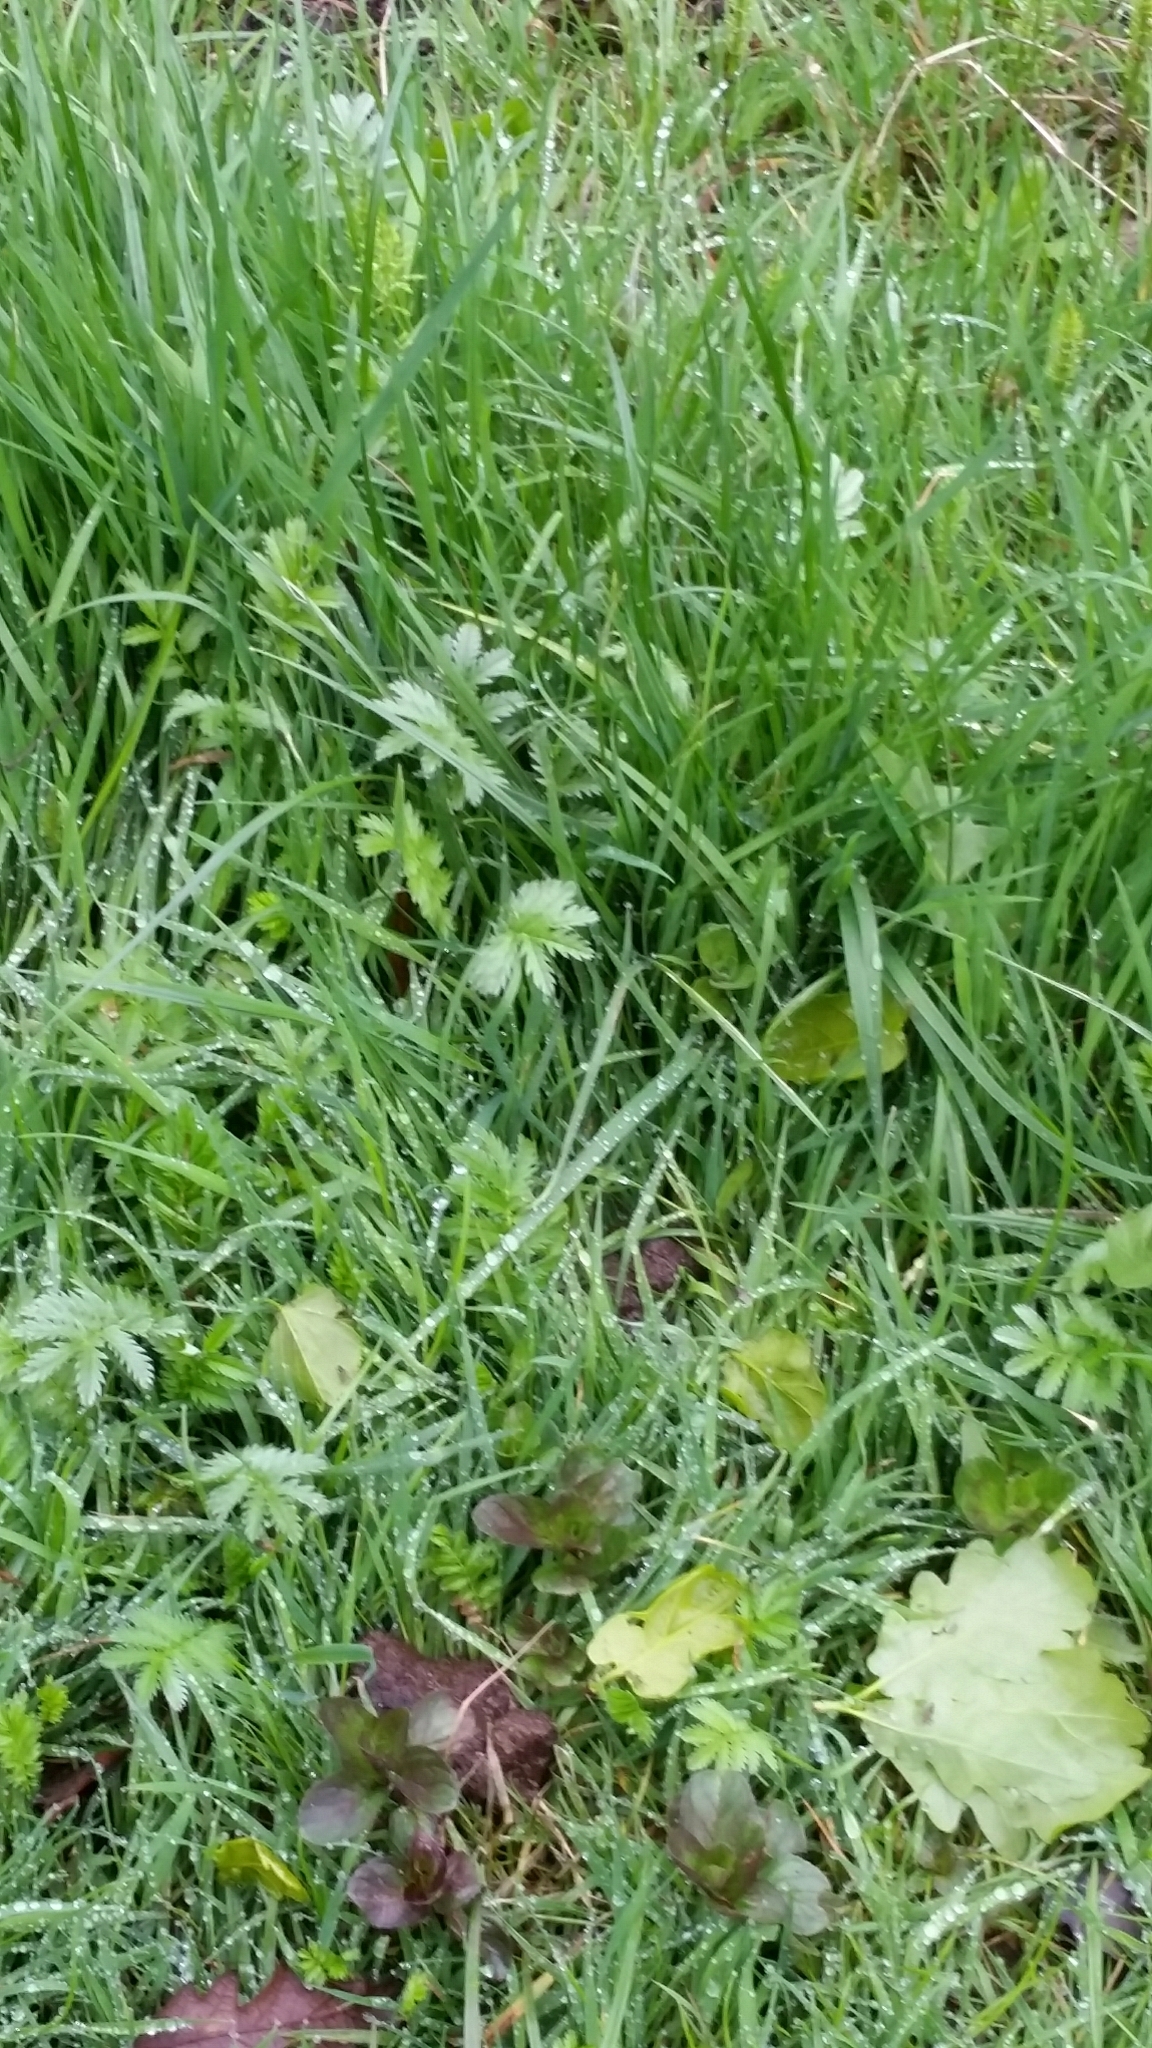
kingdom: Plantae
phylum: Tracheophyta
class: Magnoliopsida
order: Rosales
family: Rosaceae
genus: Argentina
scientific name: Argentina anserina
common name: Common silverweed
